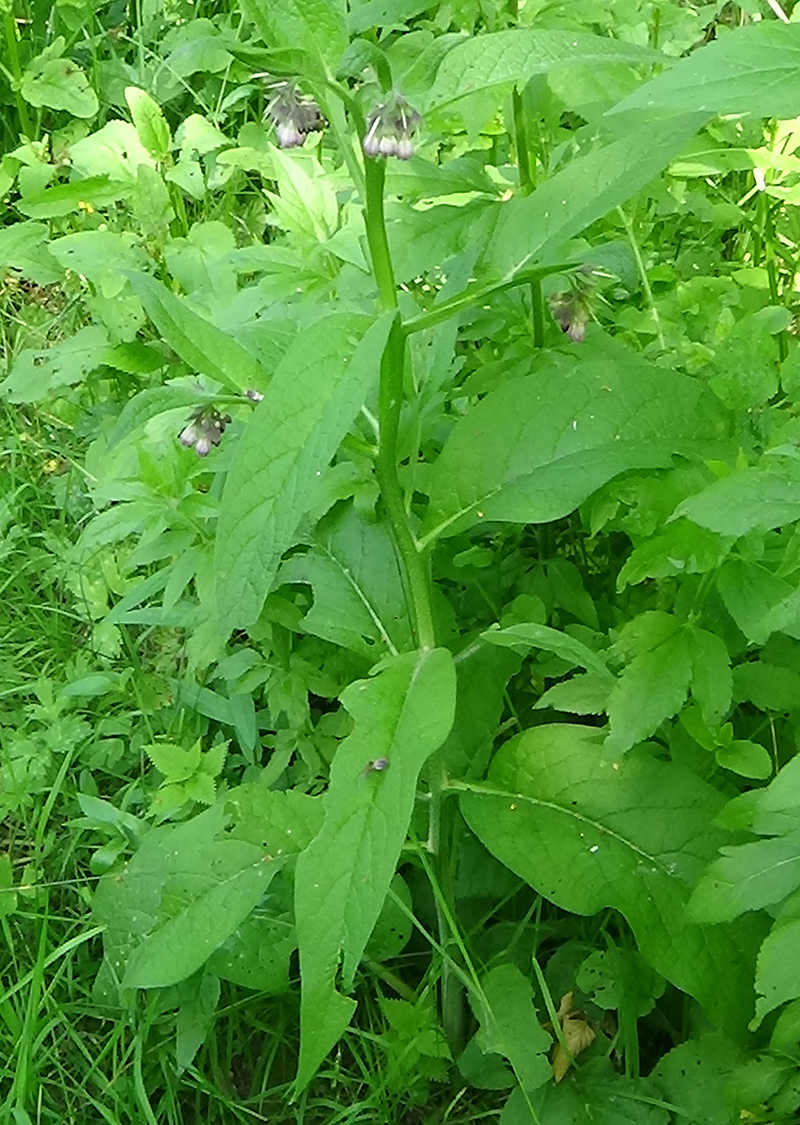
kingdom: Plantae
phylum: Tracheophyta
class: Magnoliopsida
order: Boraginales
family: Boraginaceae
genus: Symphytum
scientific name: Symphytum officinale
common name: Common comfrey
